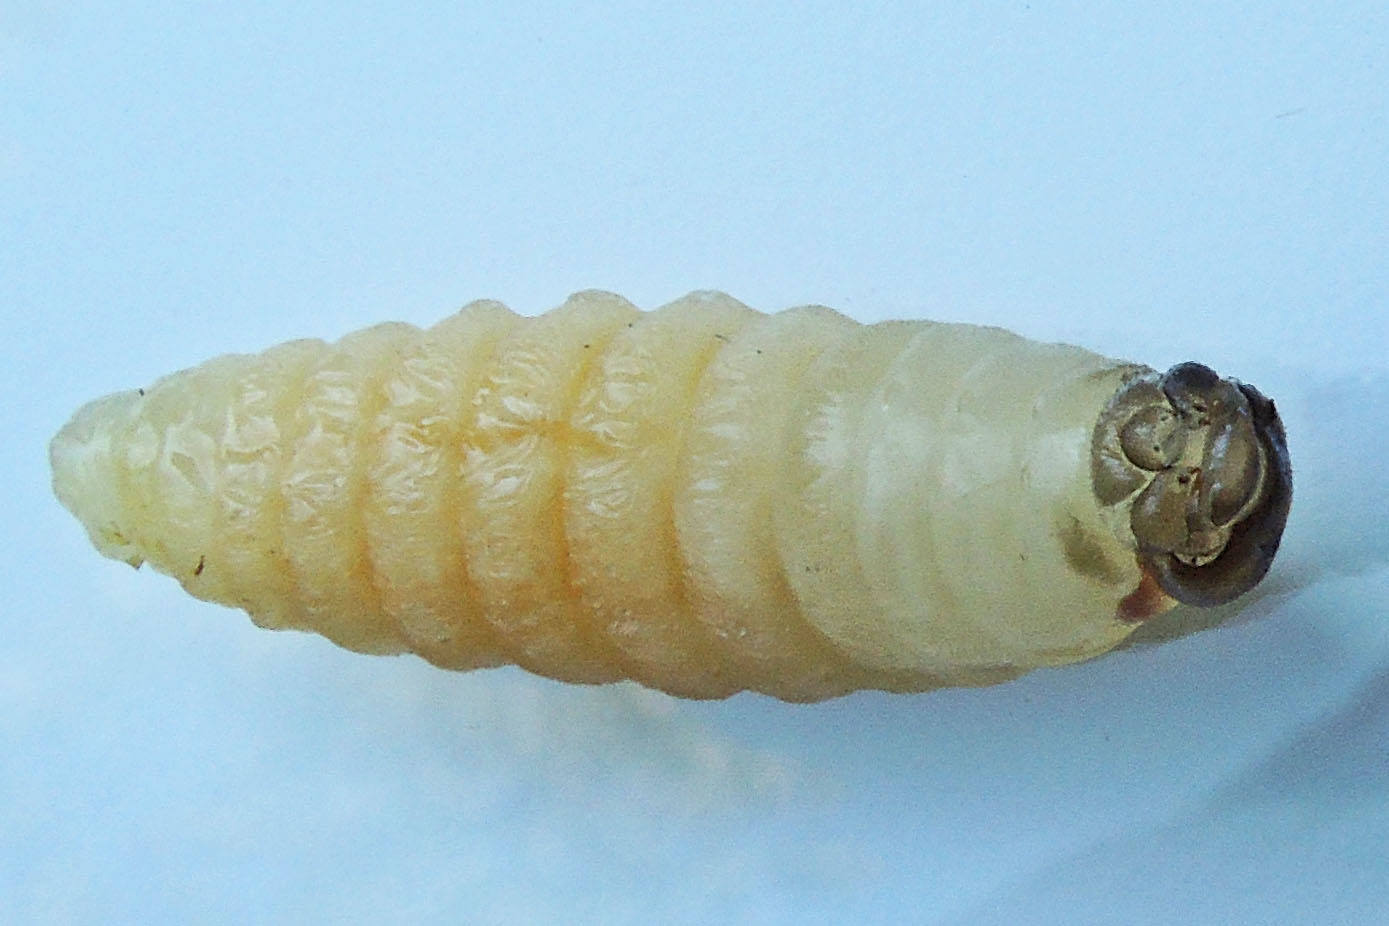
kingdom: Animalia
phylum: Arthropoda
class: Insecta
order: Hymenoptera
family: Eumenidae
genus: Polistes
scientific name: Polistes
